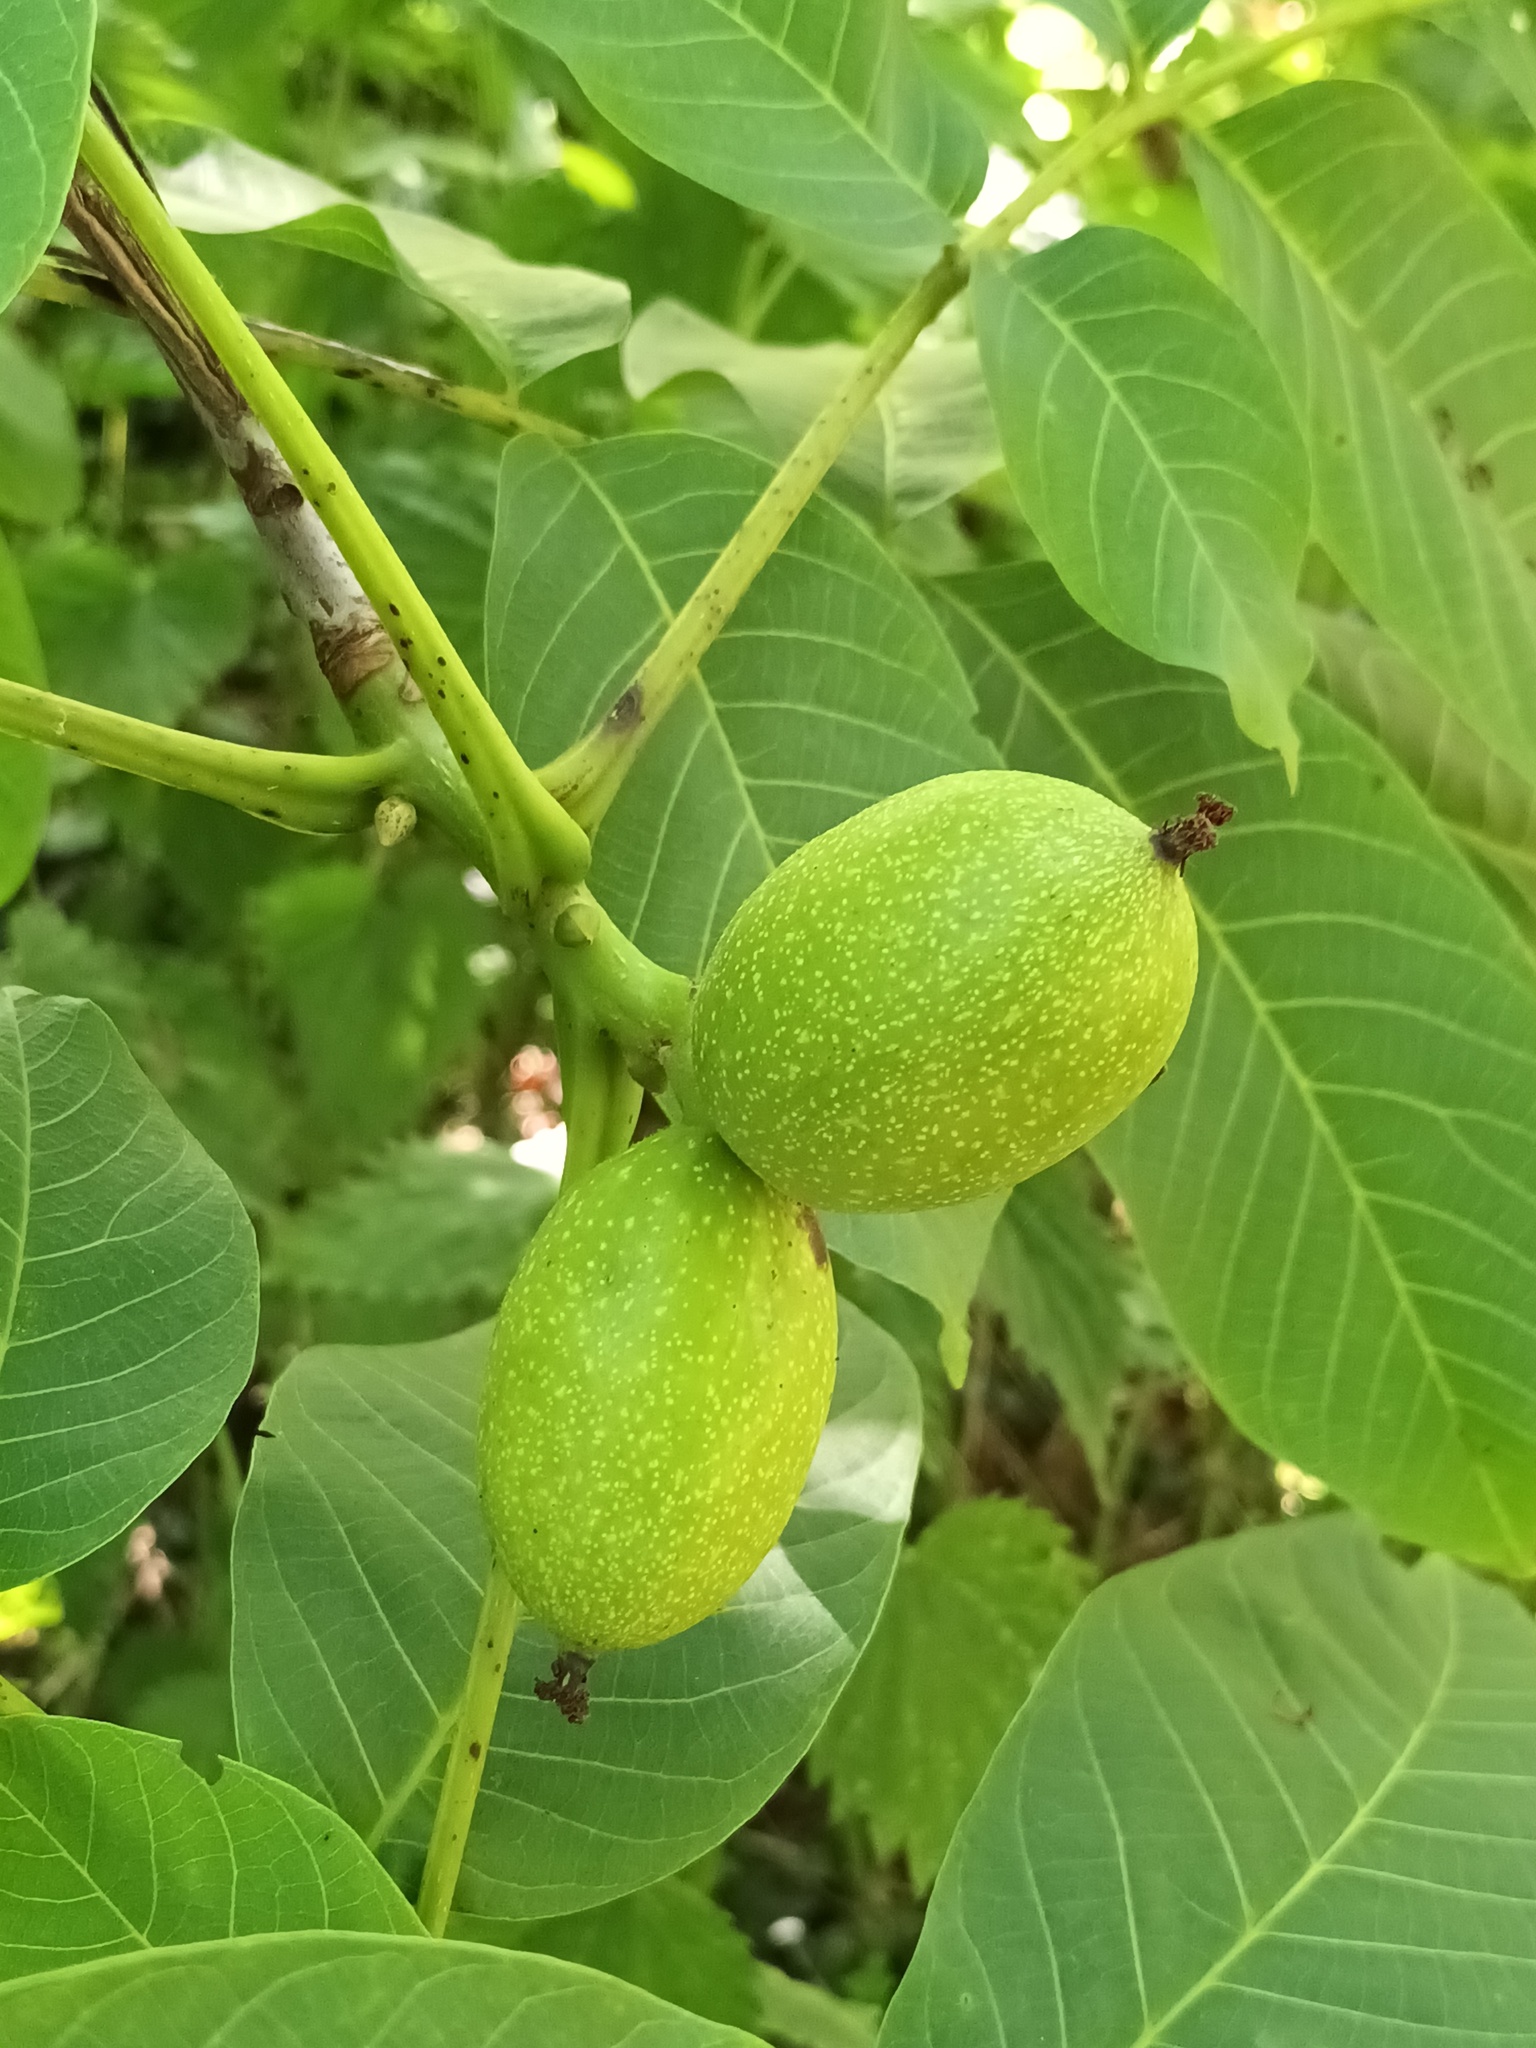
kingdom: Plantae
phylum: Tracheophyta
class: Magnoliopsida
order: Fagales
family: Juglandaceae
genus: Juglans
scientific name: Juglans regia
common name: Walnut
